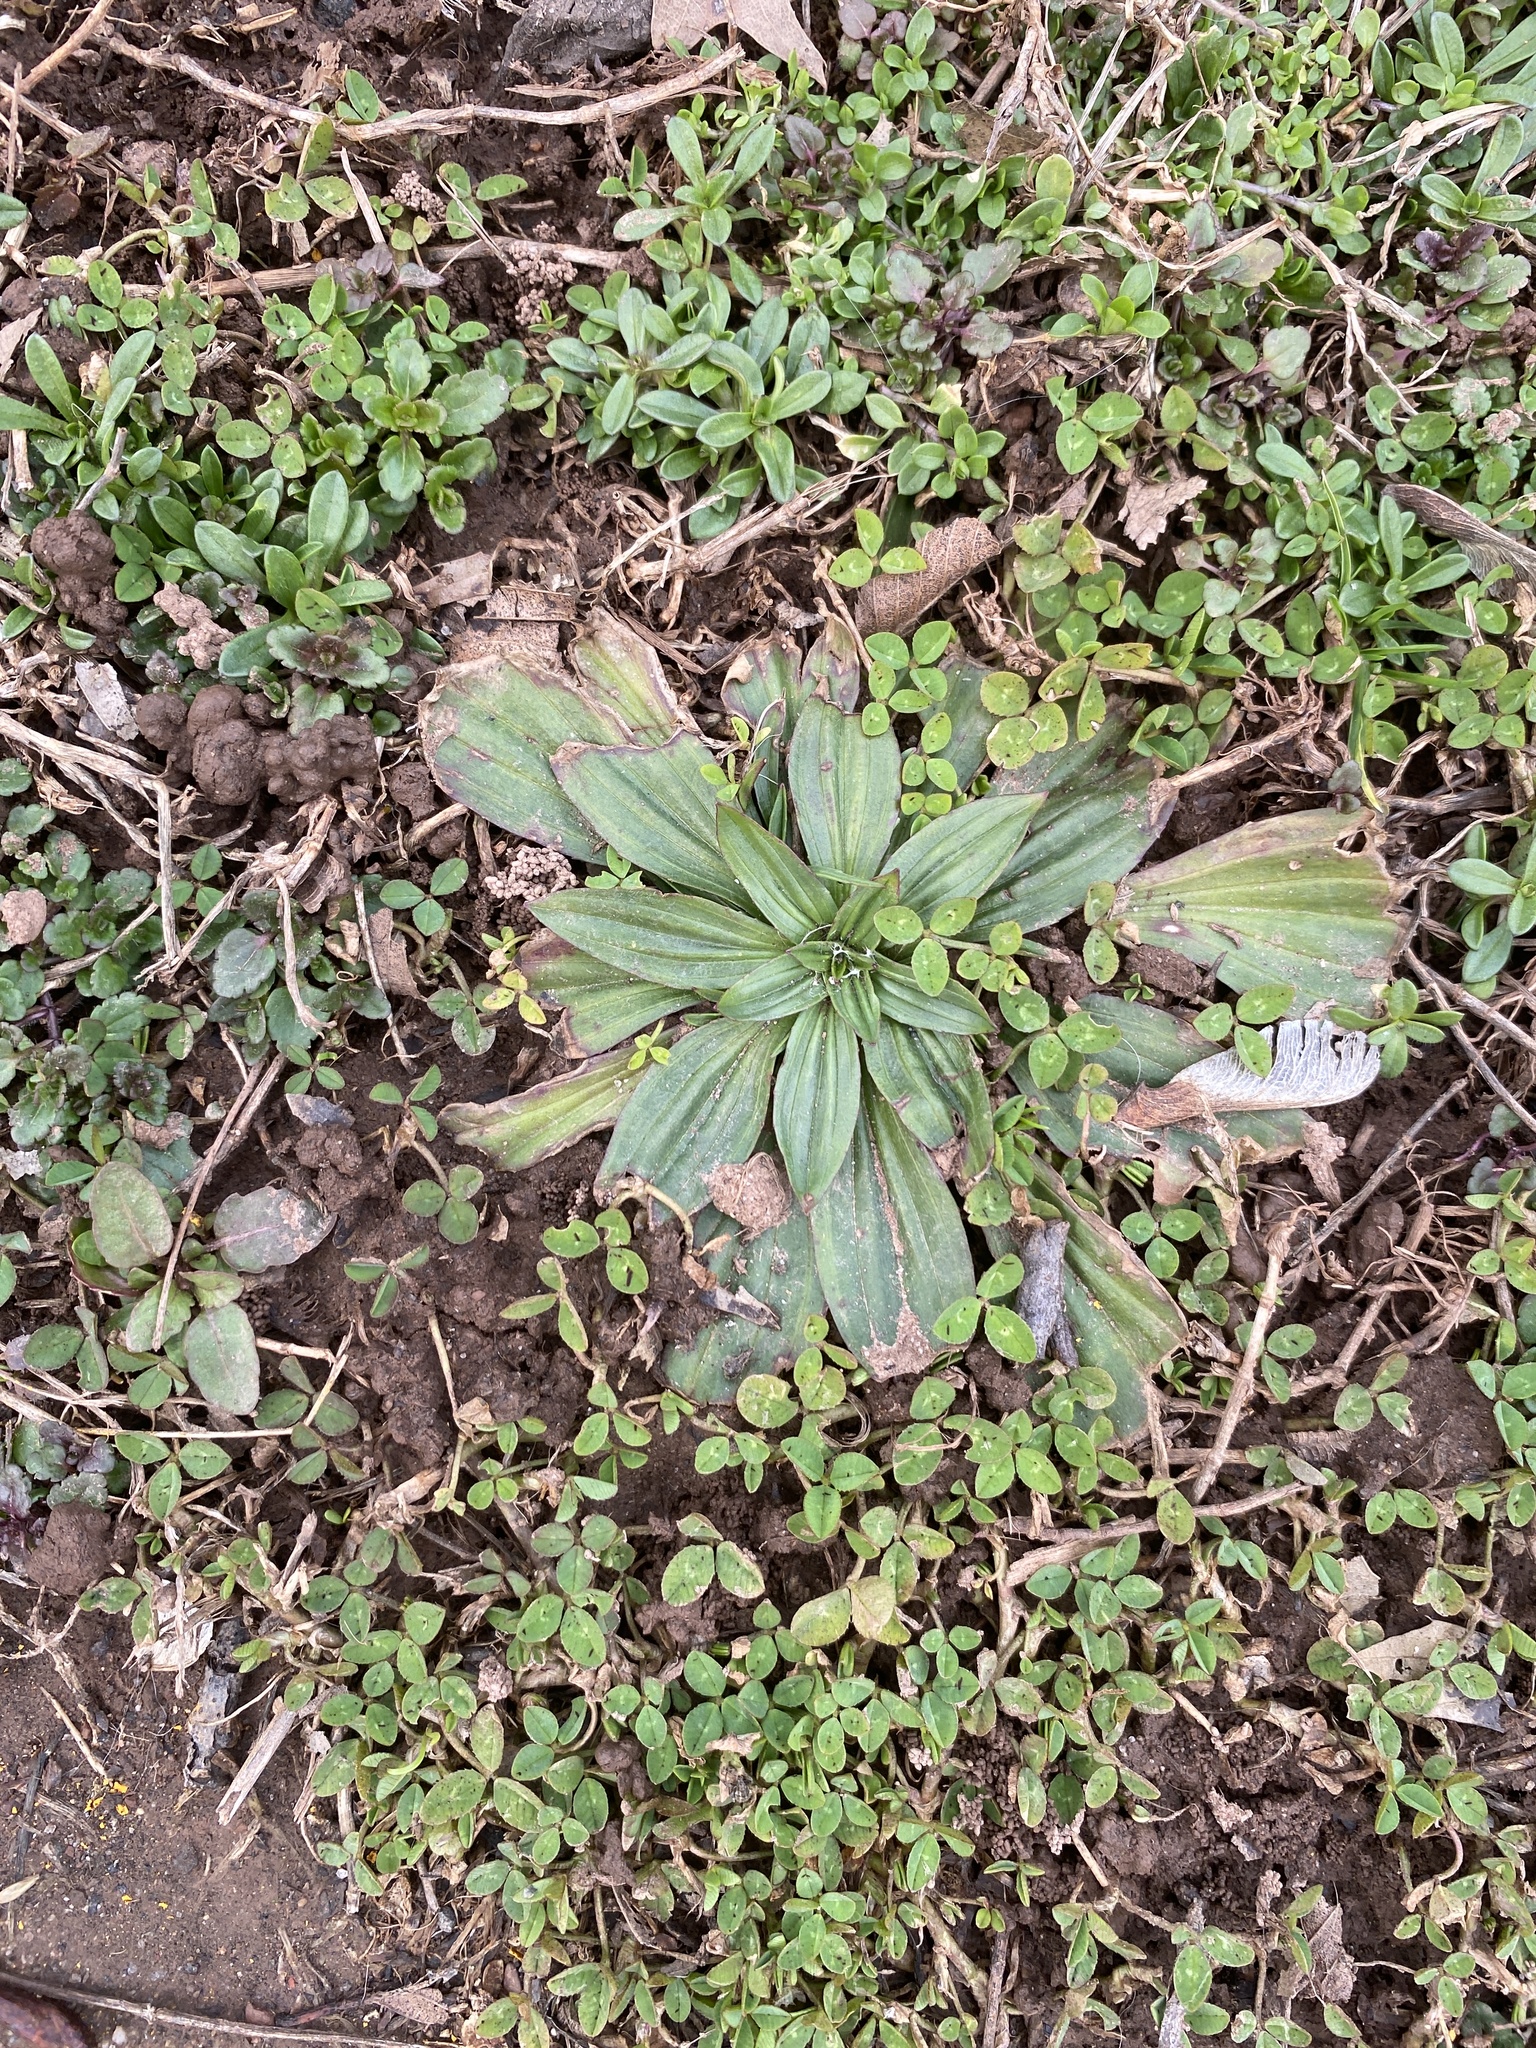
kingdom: Plantae
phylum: Tracheophyta
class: Magnoliopsida
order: Lamiales
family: Plantaginaceae
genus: Plantago
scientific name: Plantago lanceolata
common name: Ribwort plantain
